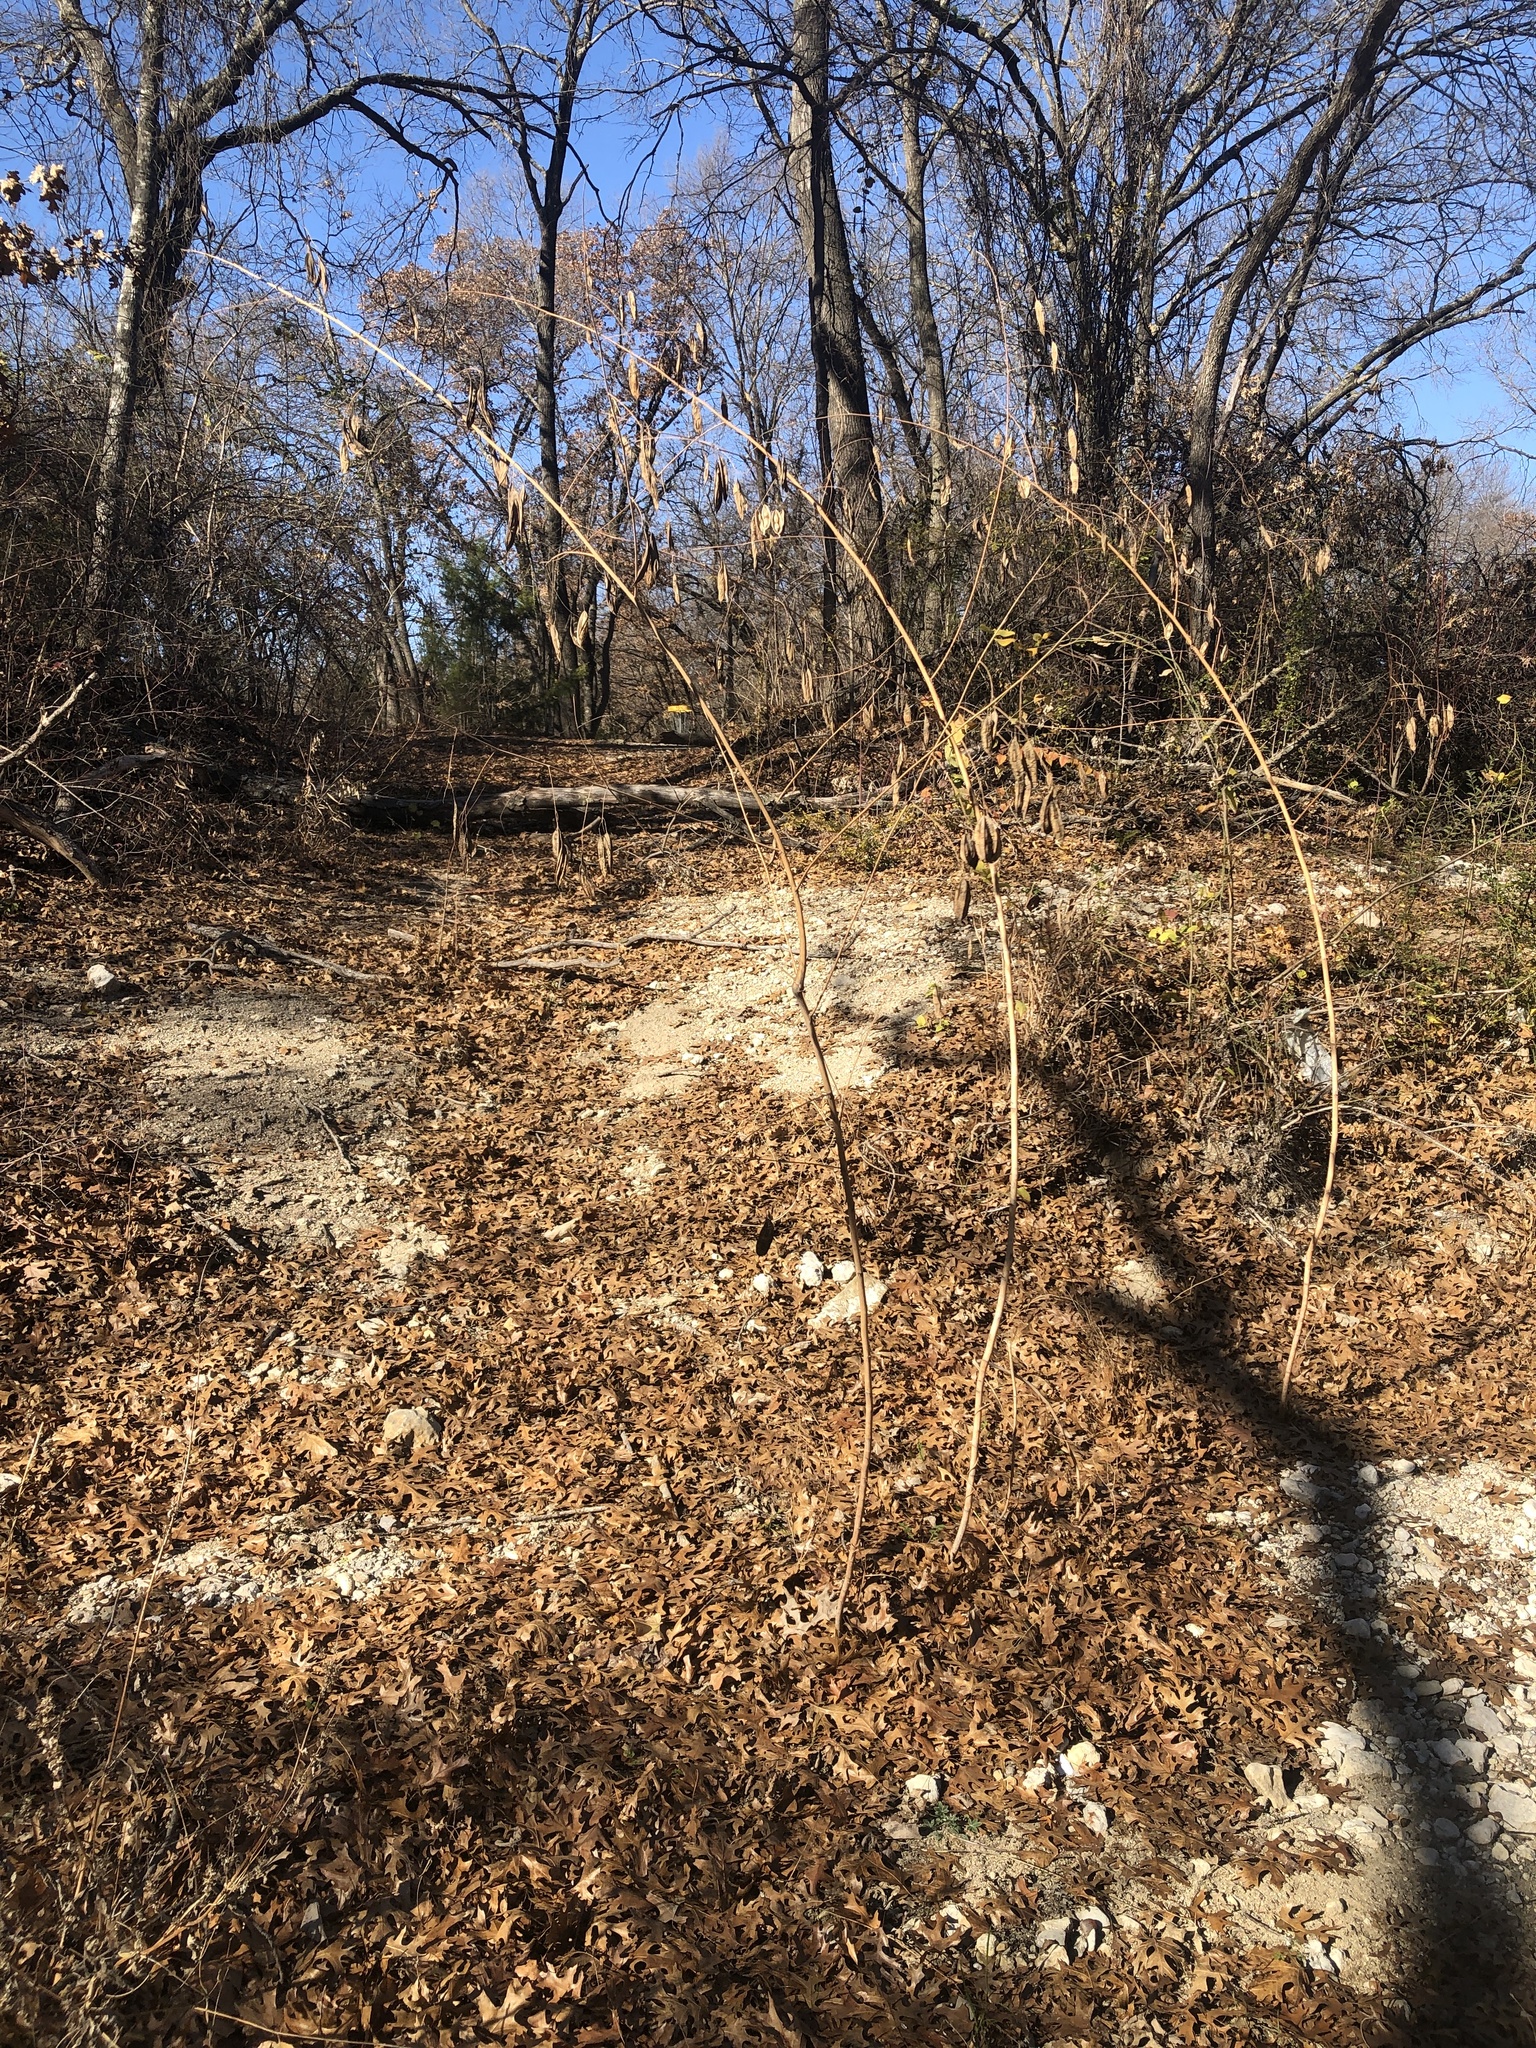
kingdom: Plantae
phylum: Tracheophyta
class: Magnoliopsida
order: Fabales
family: Fabaceae
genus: Sesbania
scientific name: Sesbania vesicaria
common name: Bagpod
